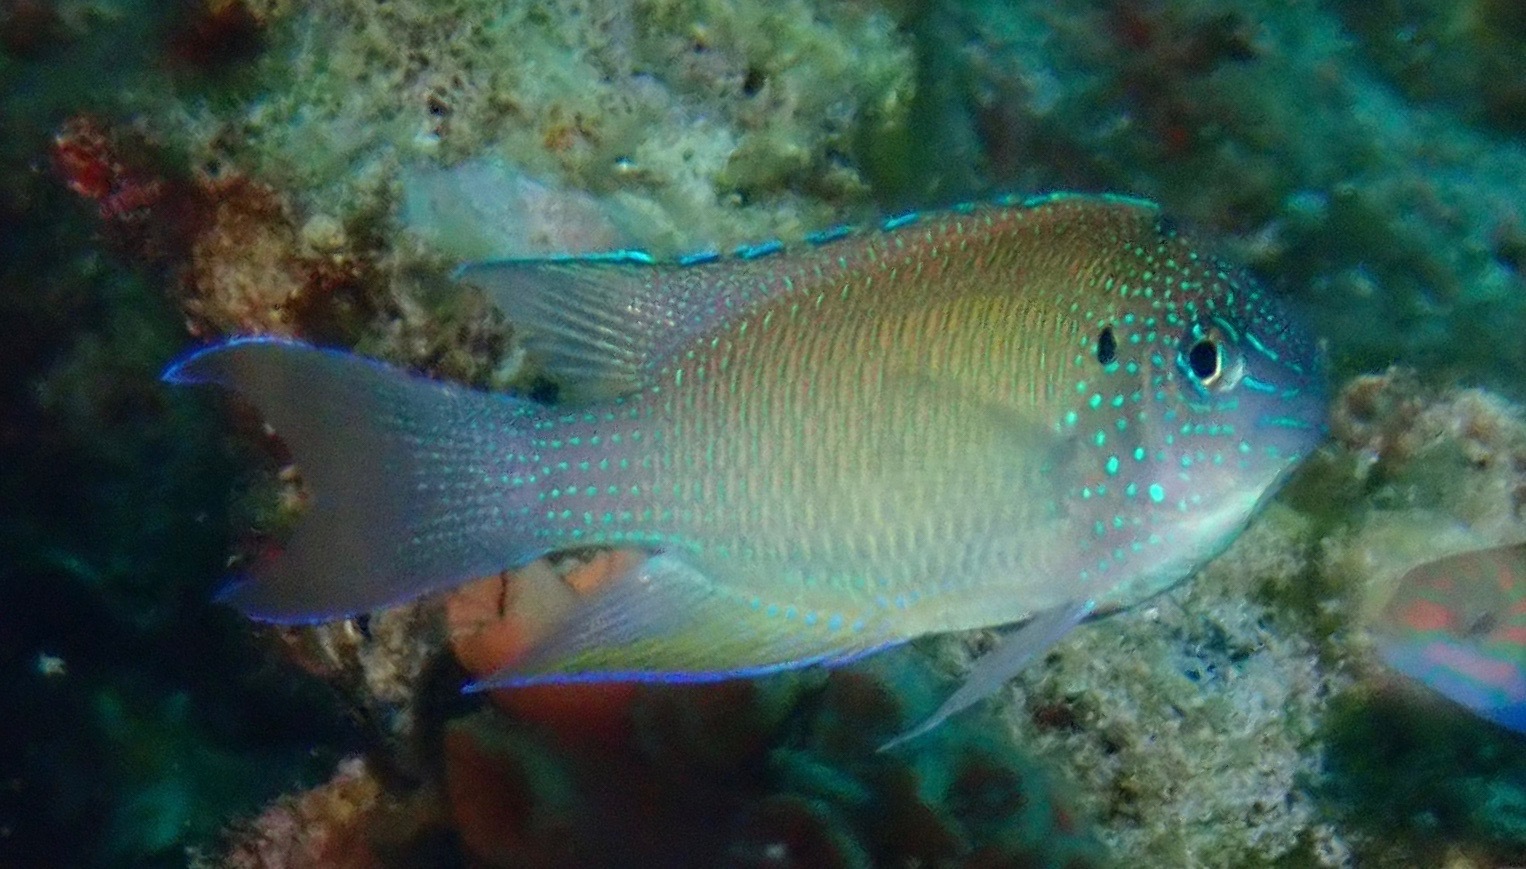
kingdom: Animalia
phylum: Chordata
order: Perciformes
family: Pomacentridae
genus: Pomacentrus
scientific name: Pomacentrus pavo
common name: Sapphire damsel
